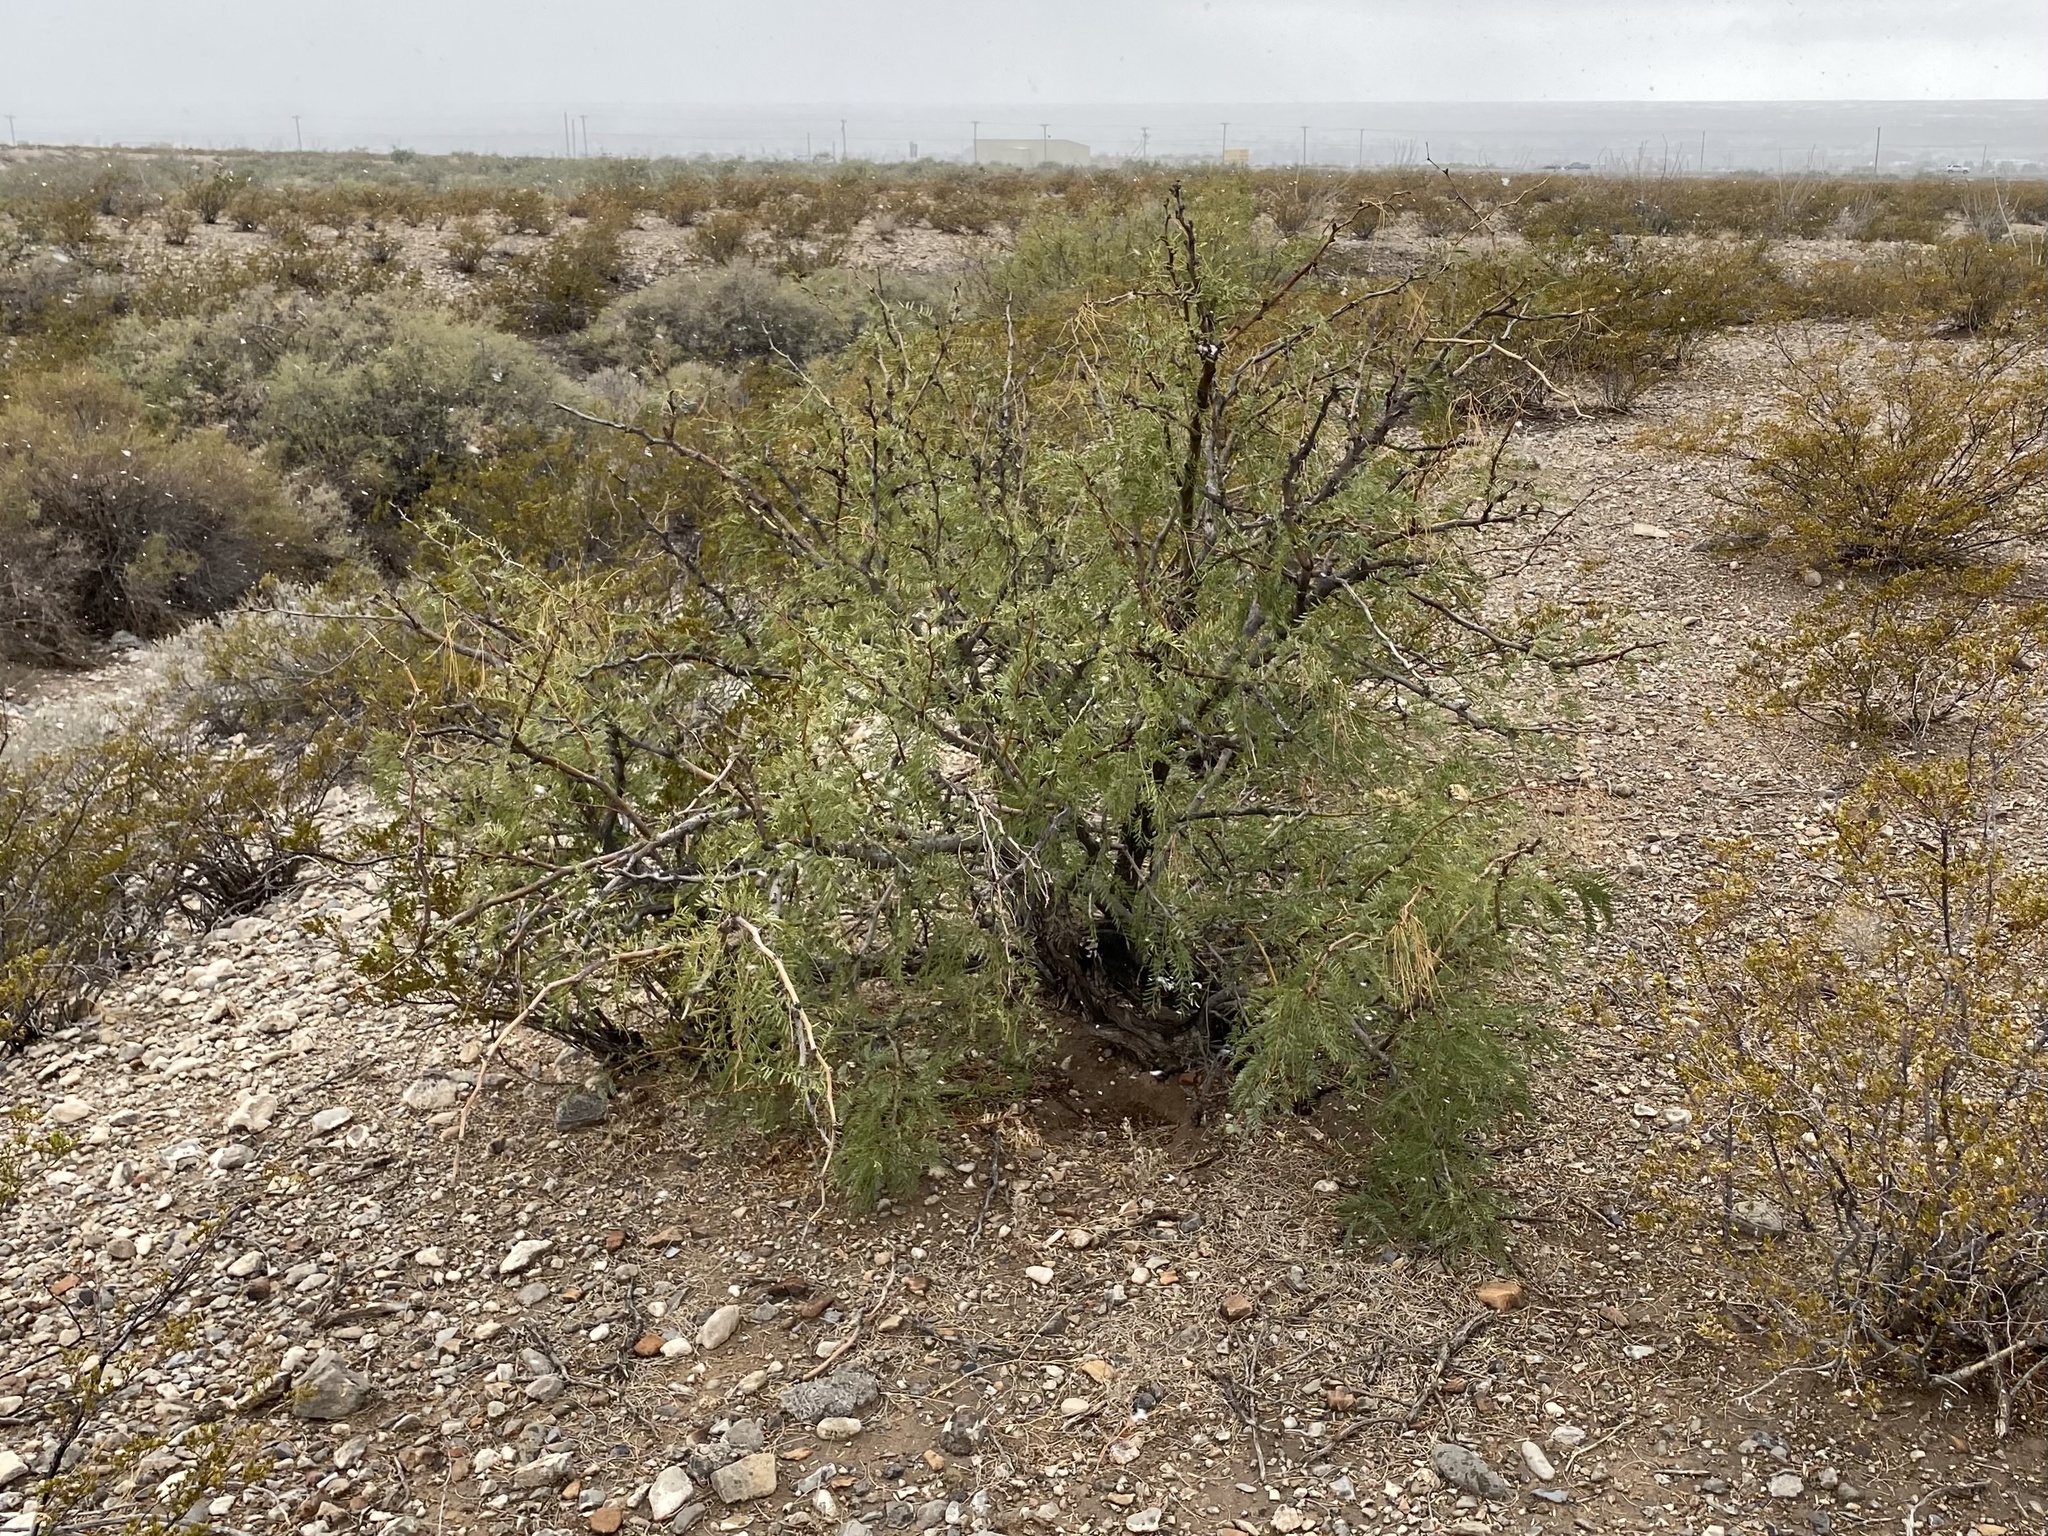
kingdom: Plantae
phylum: Tracheophyta
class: Magnoliopsida
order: Fabales
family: Fabaceae
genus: Prosopis
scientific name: Prosopis glandulosa
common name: Honey mesquite
